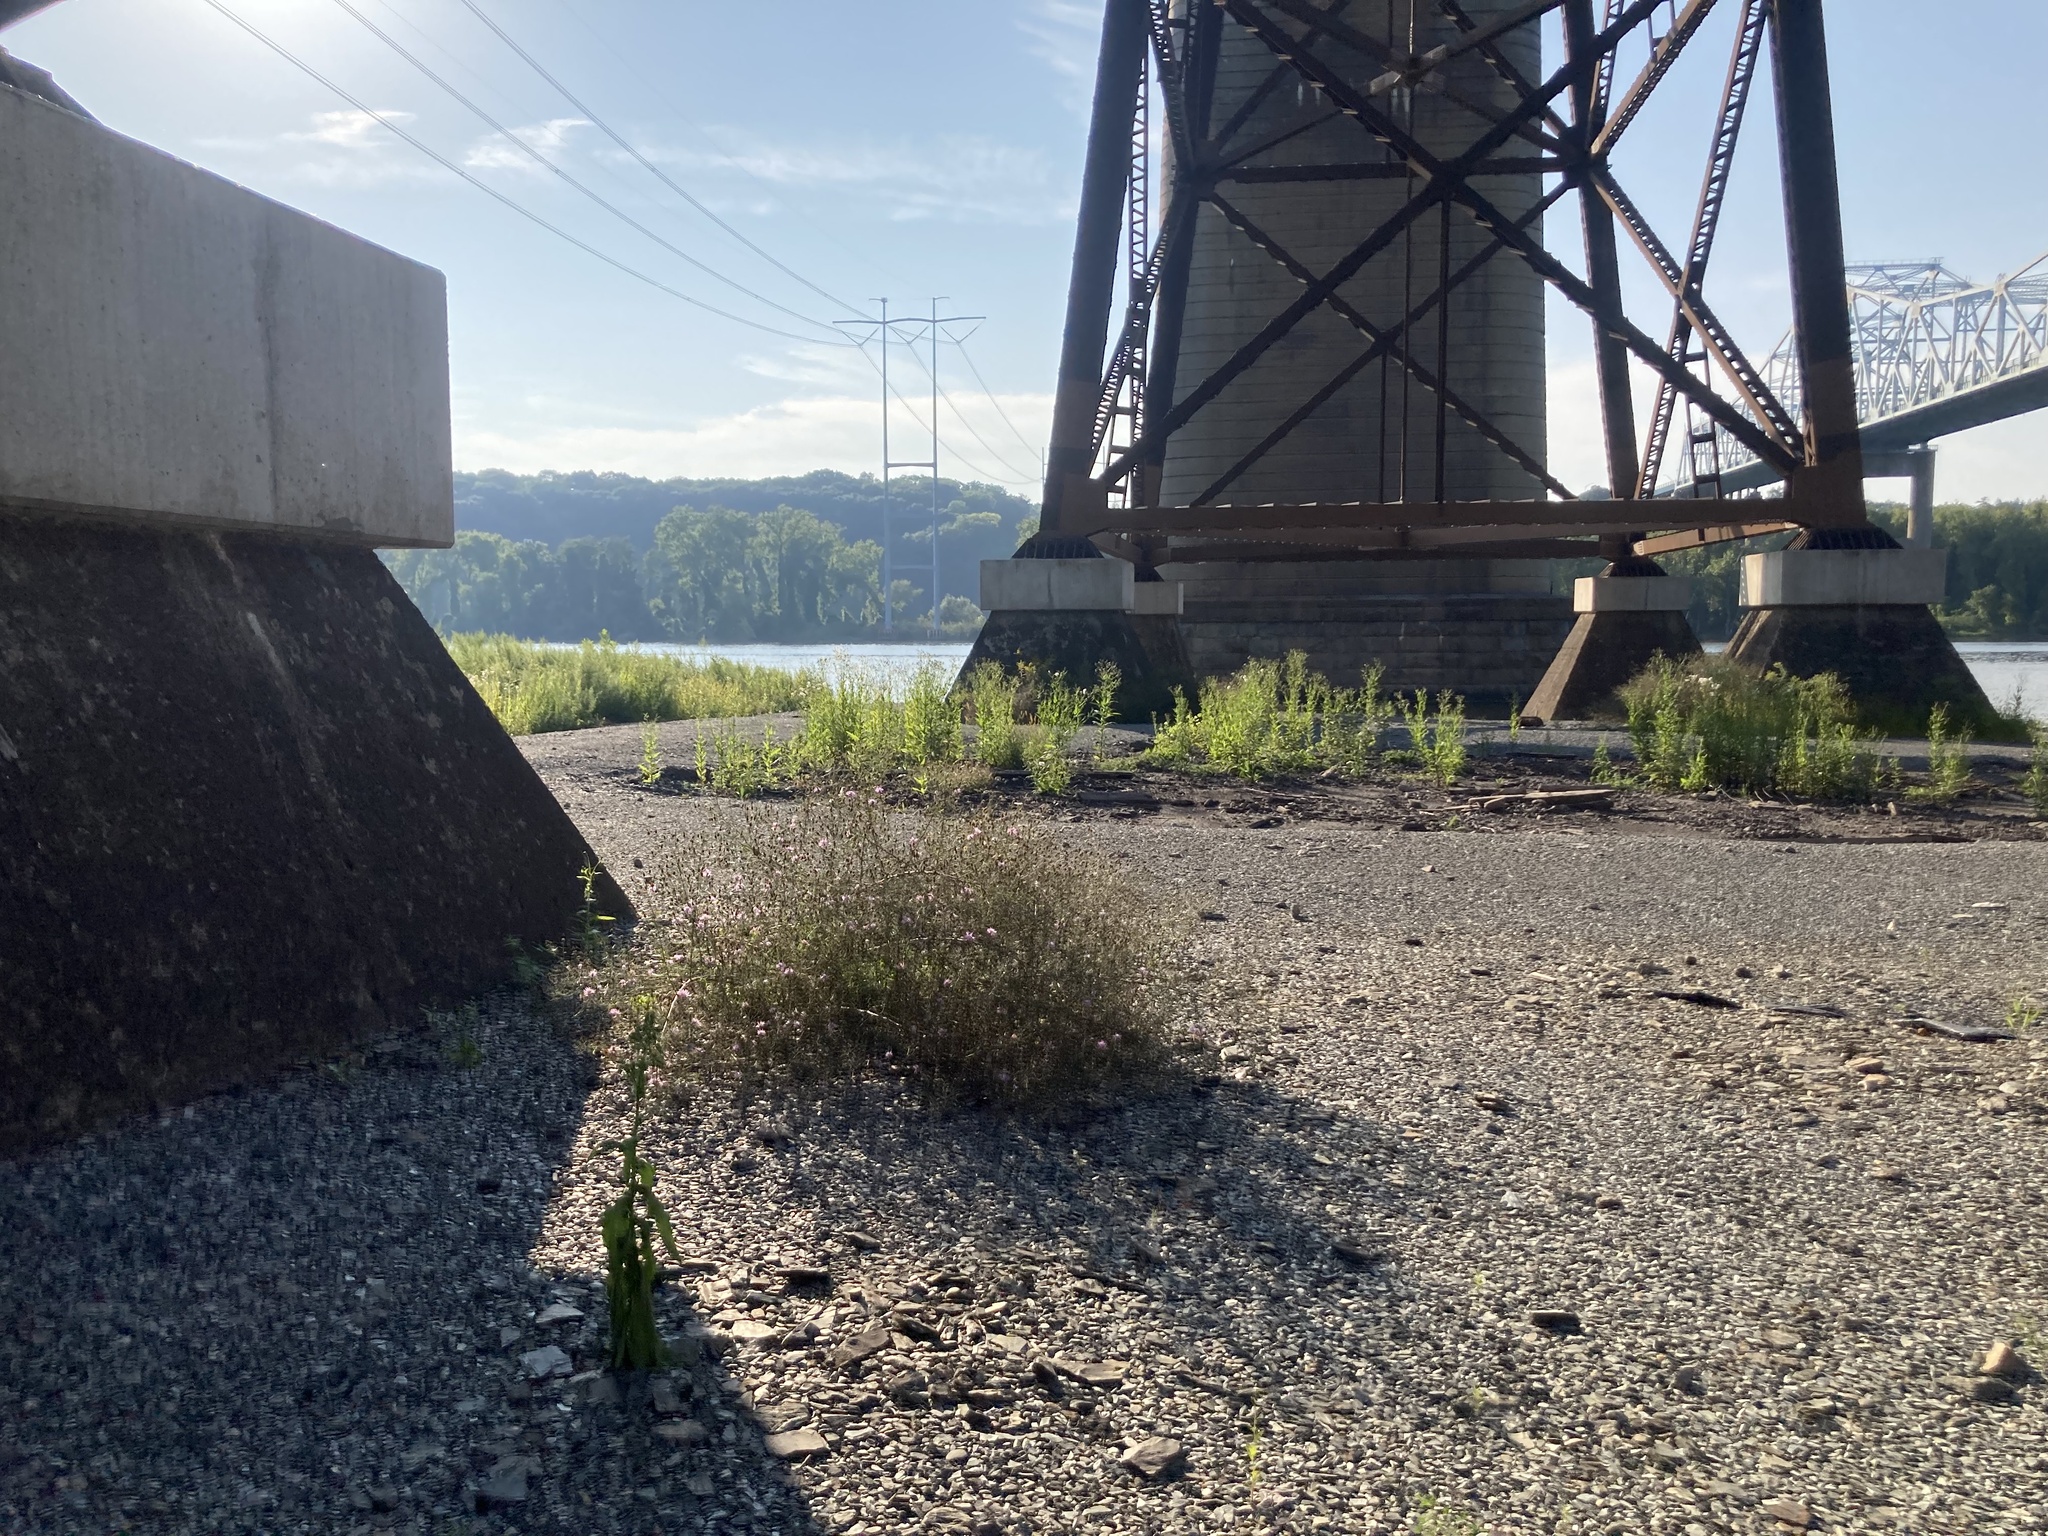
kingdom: Plantae
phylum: Tracheophyta
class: Magnoliopsida
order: Asterales
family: Asteraceae
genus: Centaurea
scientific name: Centaurea stoebe
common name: Spotted knapweed
